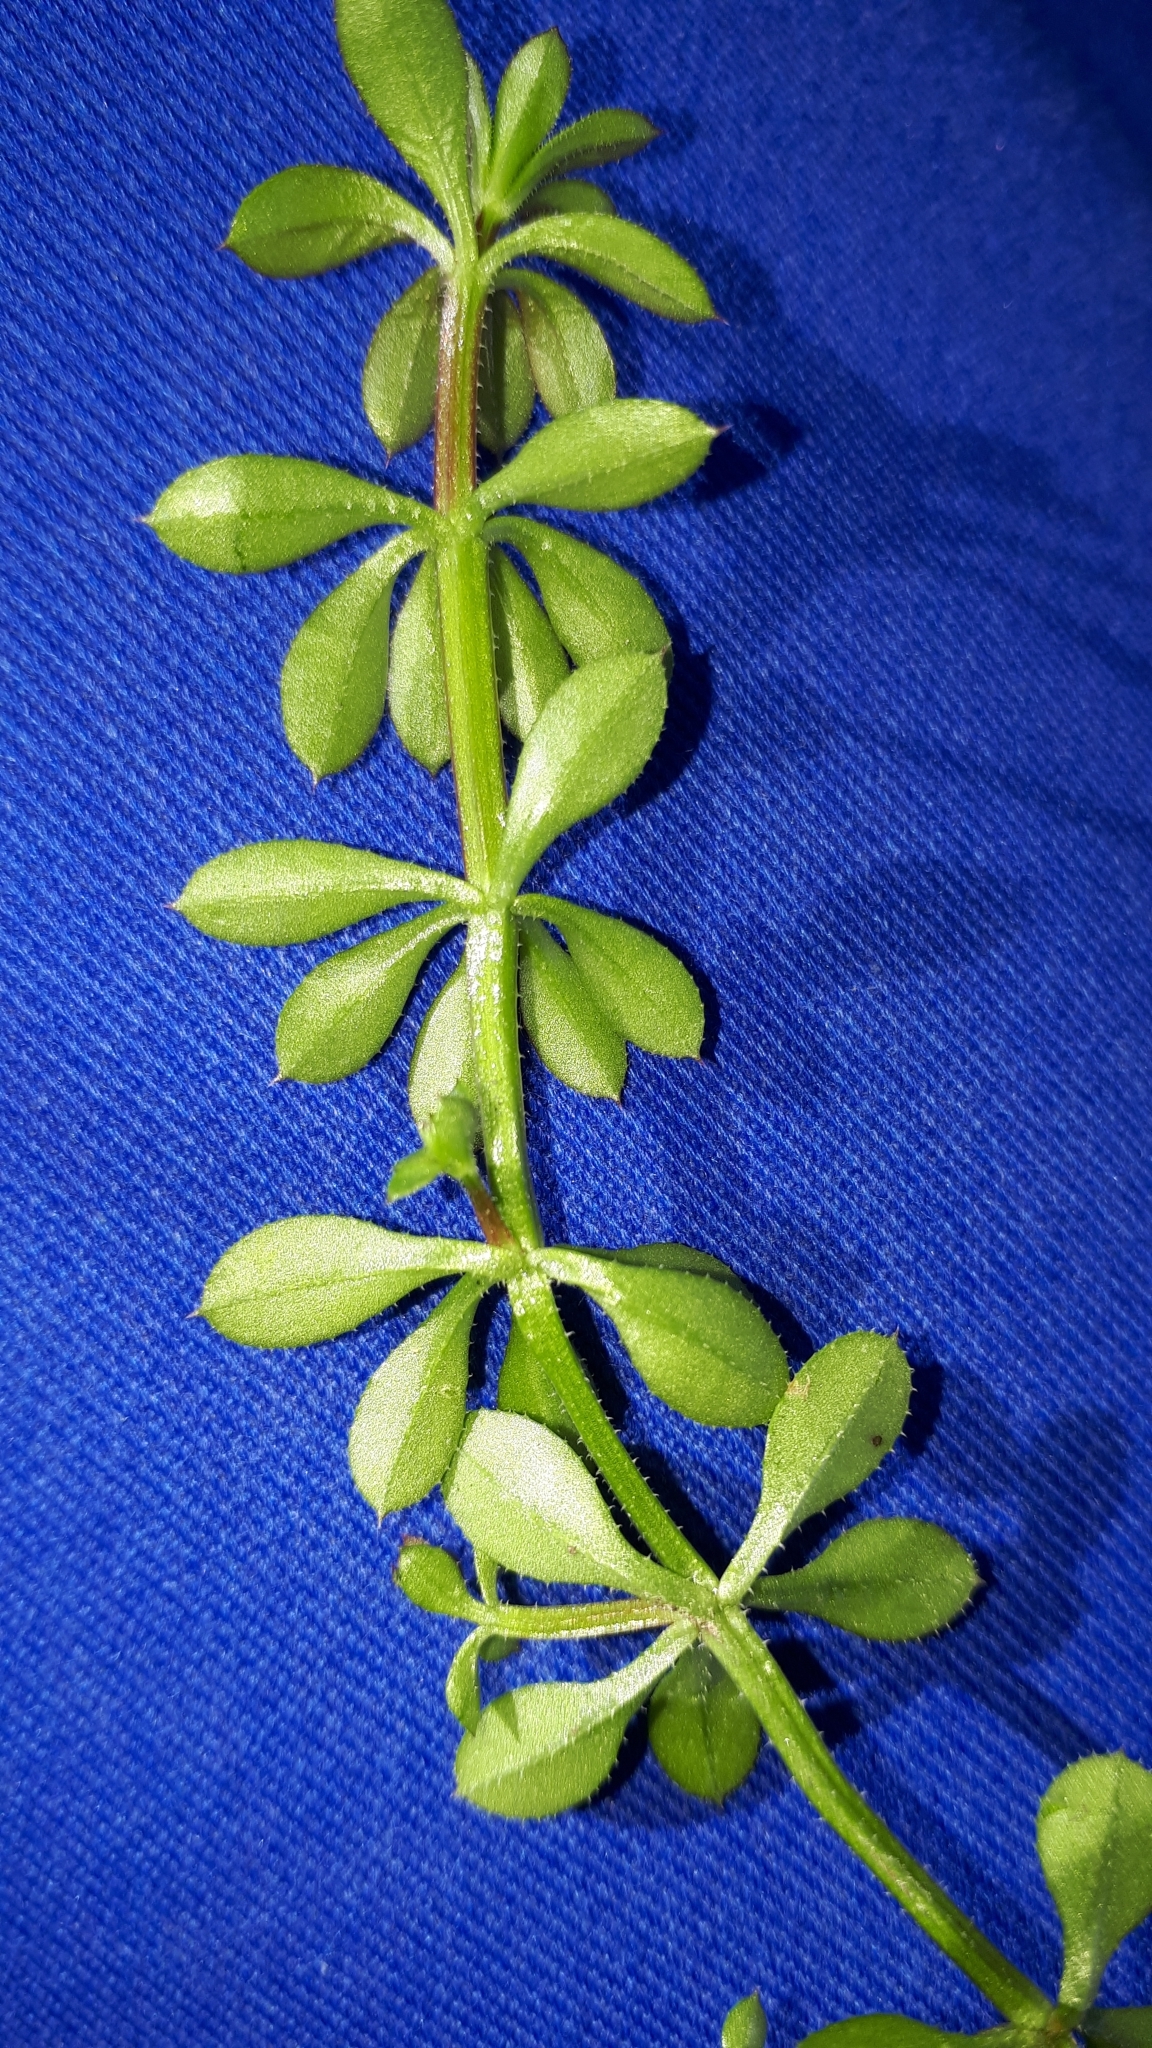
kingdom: Plantae
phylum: Tracheophyta
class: Magnoliopsida
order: Gentianales
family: Rubiaceae
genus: Galium
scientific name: Galium aparine
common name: Cleavers
